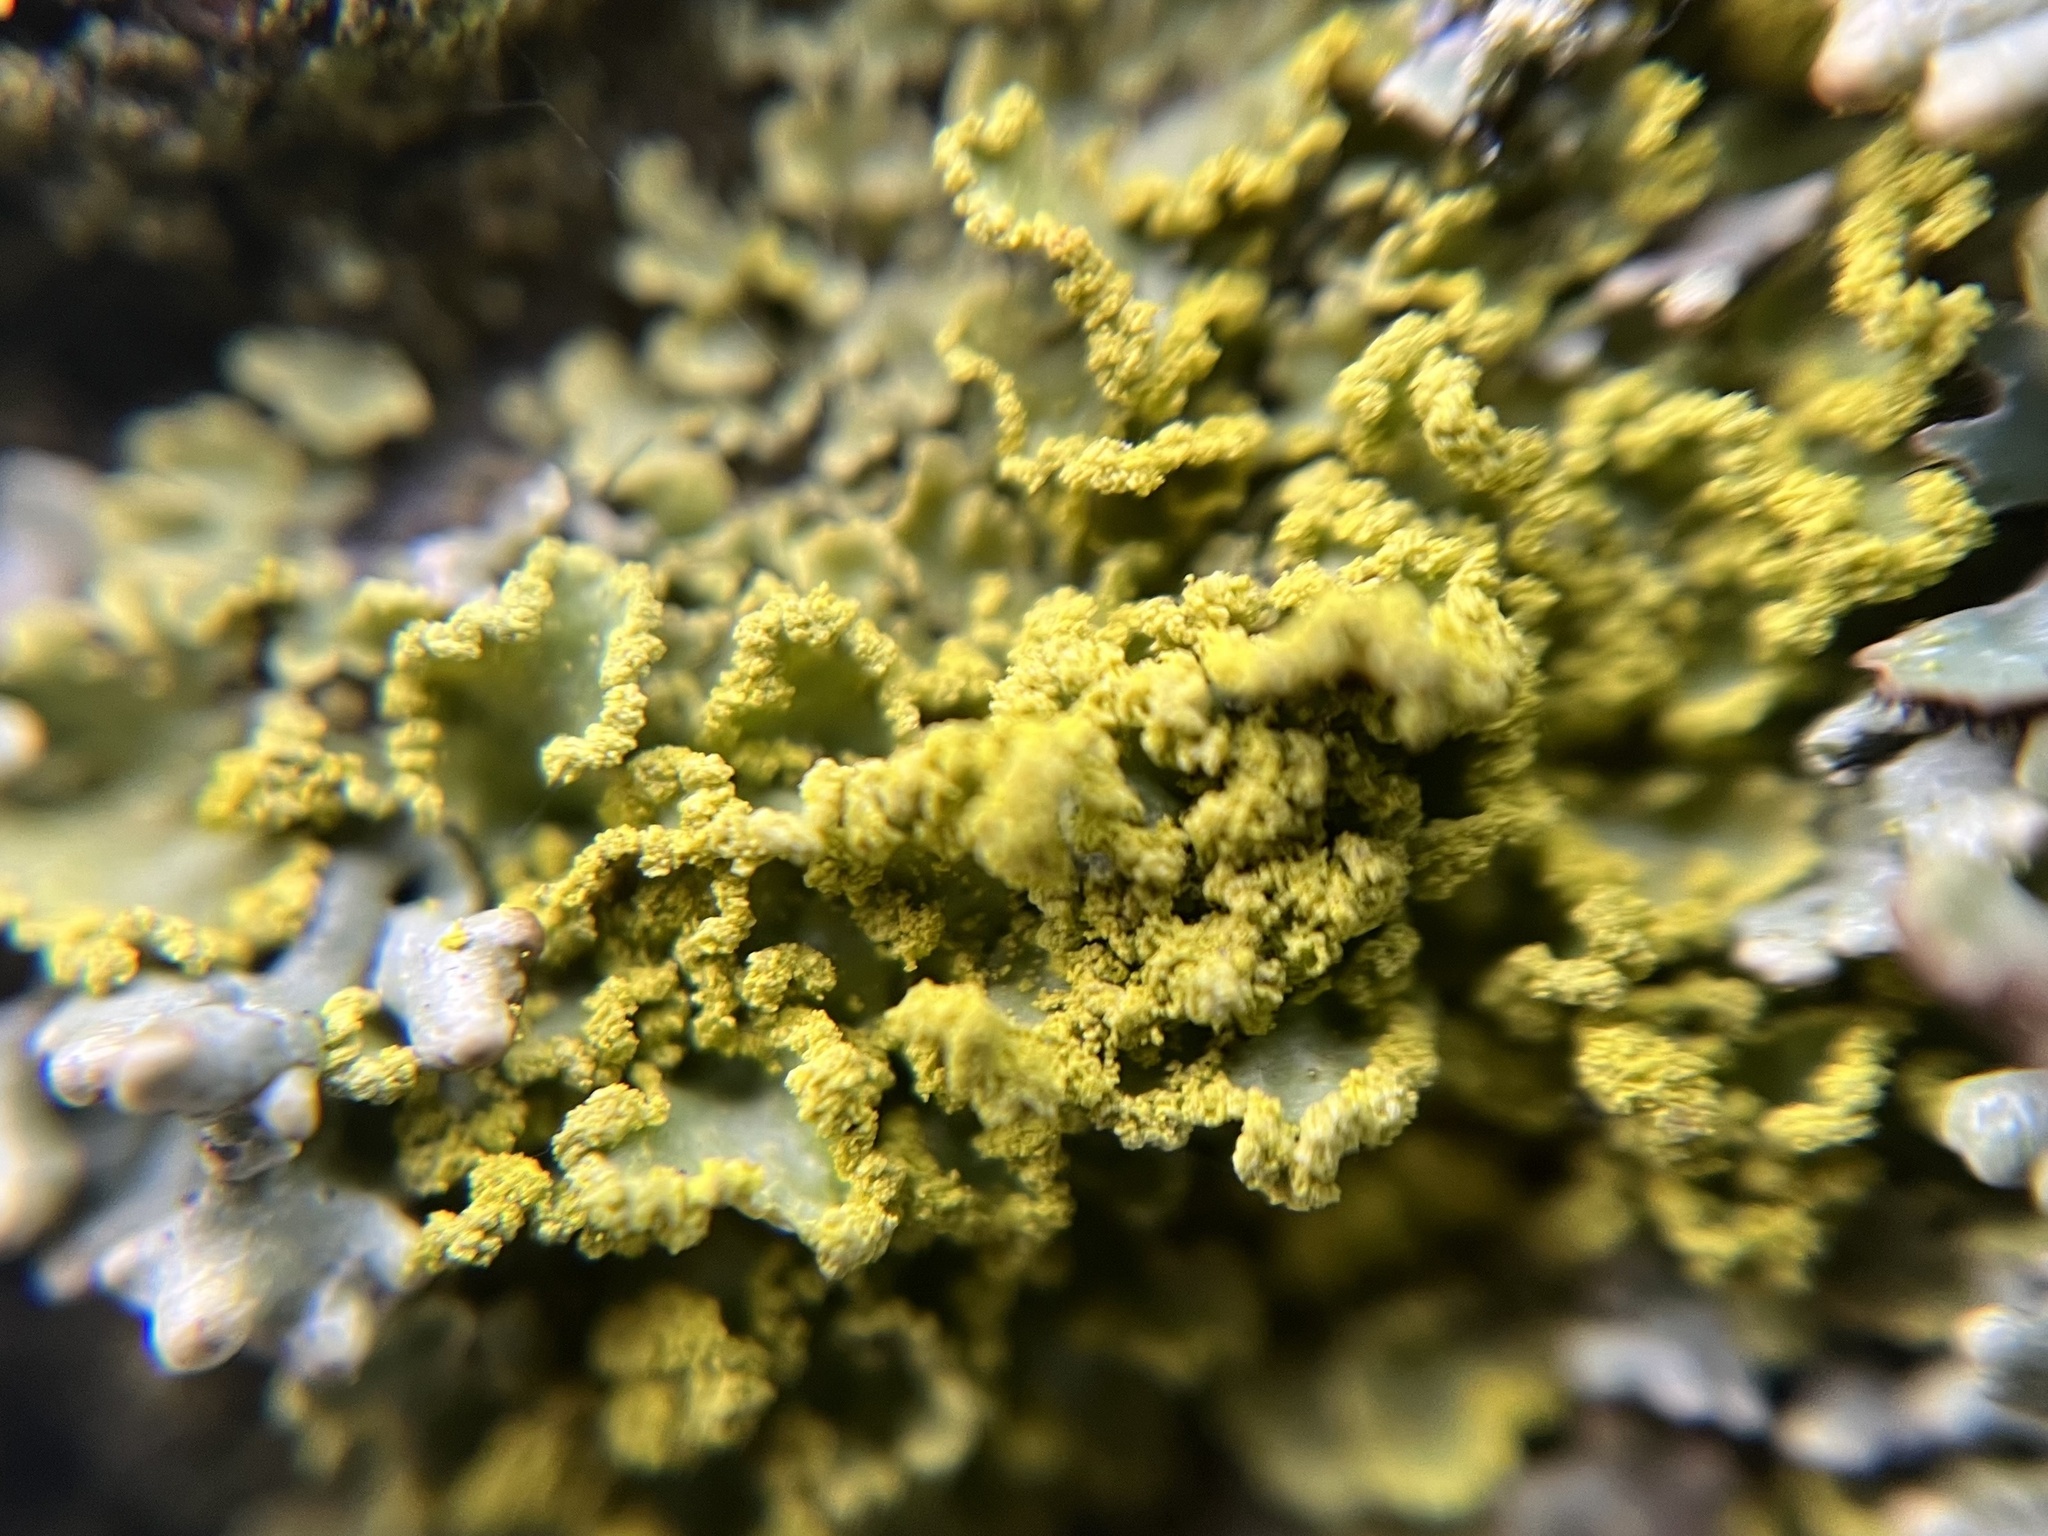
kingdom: Fungi
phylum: Ascomycota
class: Lecanoromycetes
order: Lecanorales
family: Parmeliaceae
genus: Vulpicida
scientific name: Vulpicida pinastri
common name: Powdered sunshine lichen
